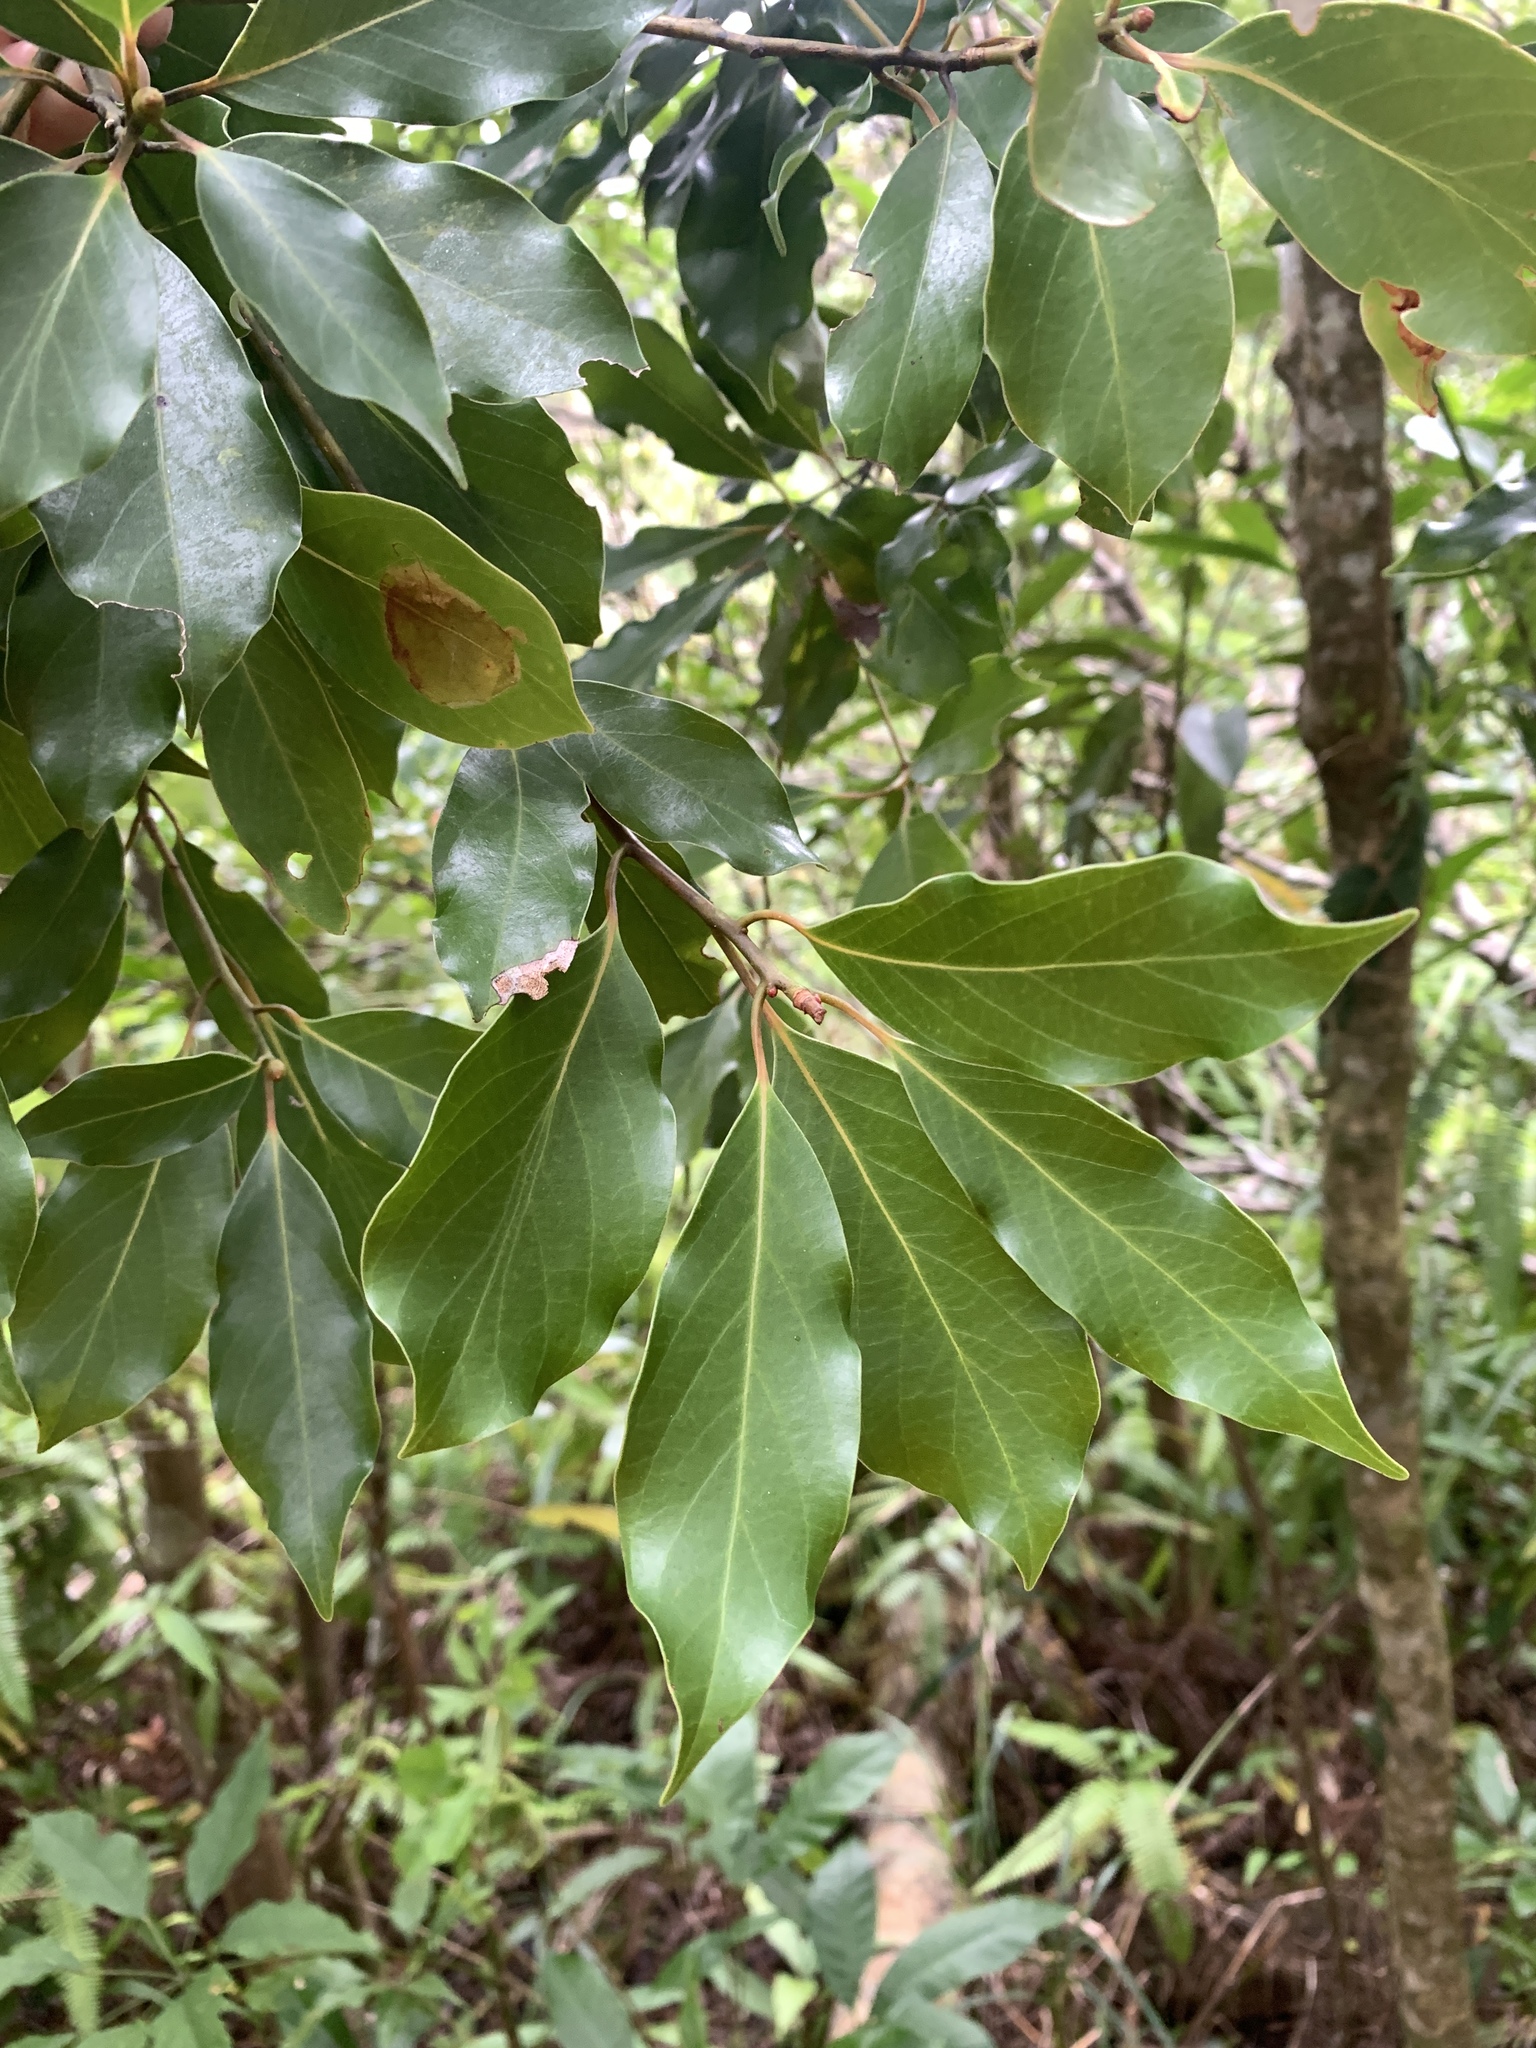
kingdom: Plantae
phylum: Tracheophyta
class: Magnoliopsida
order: Laurales
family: Lauraceae
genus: Machilus
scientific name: Machilus thunbergii
